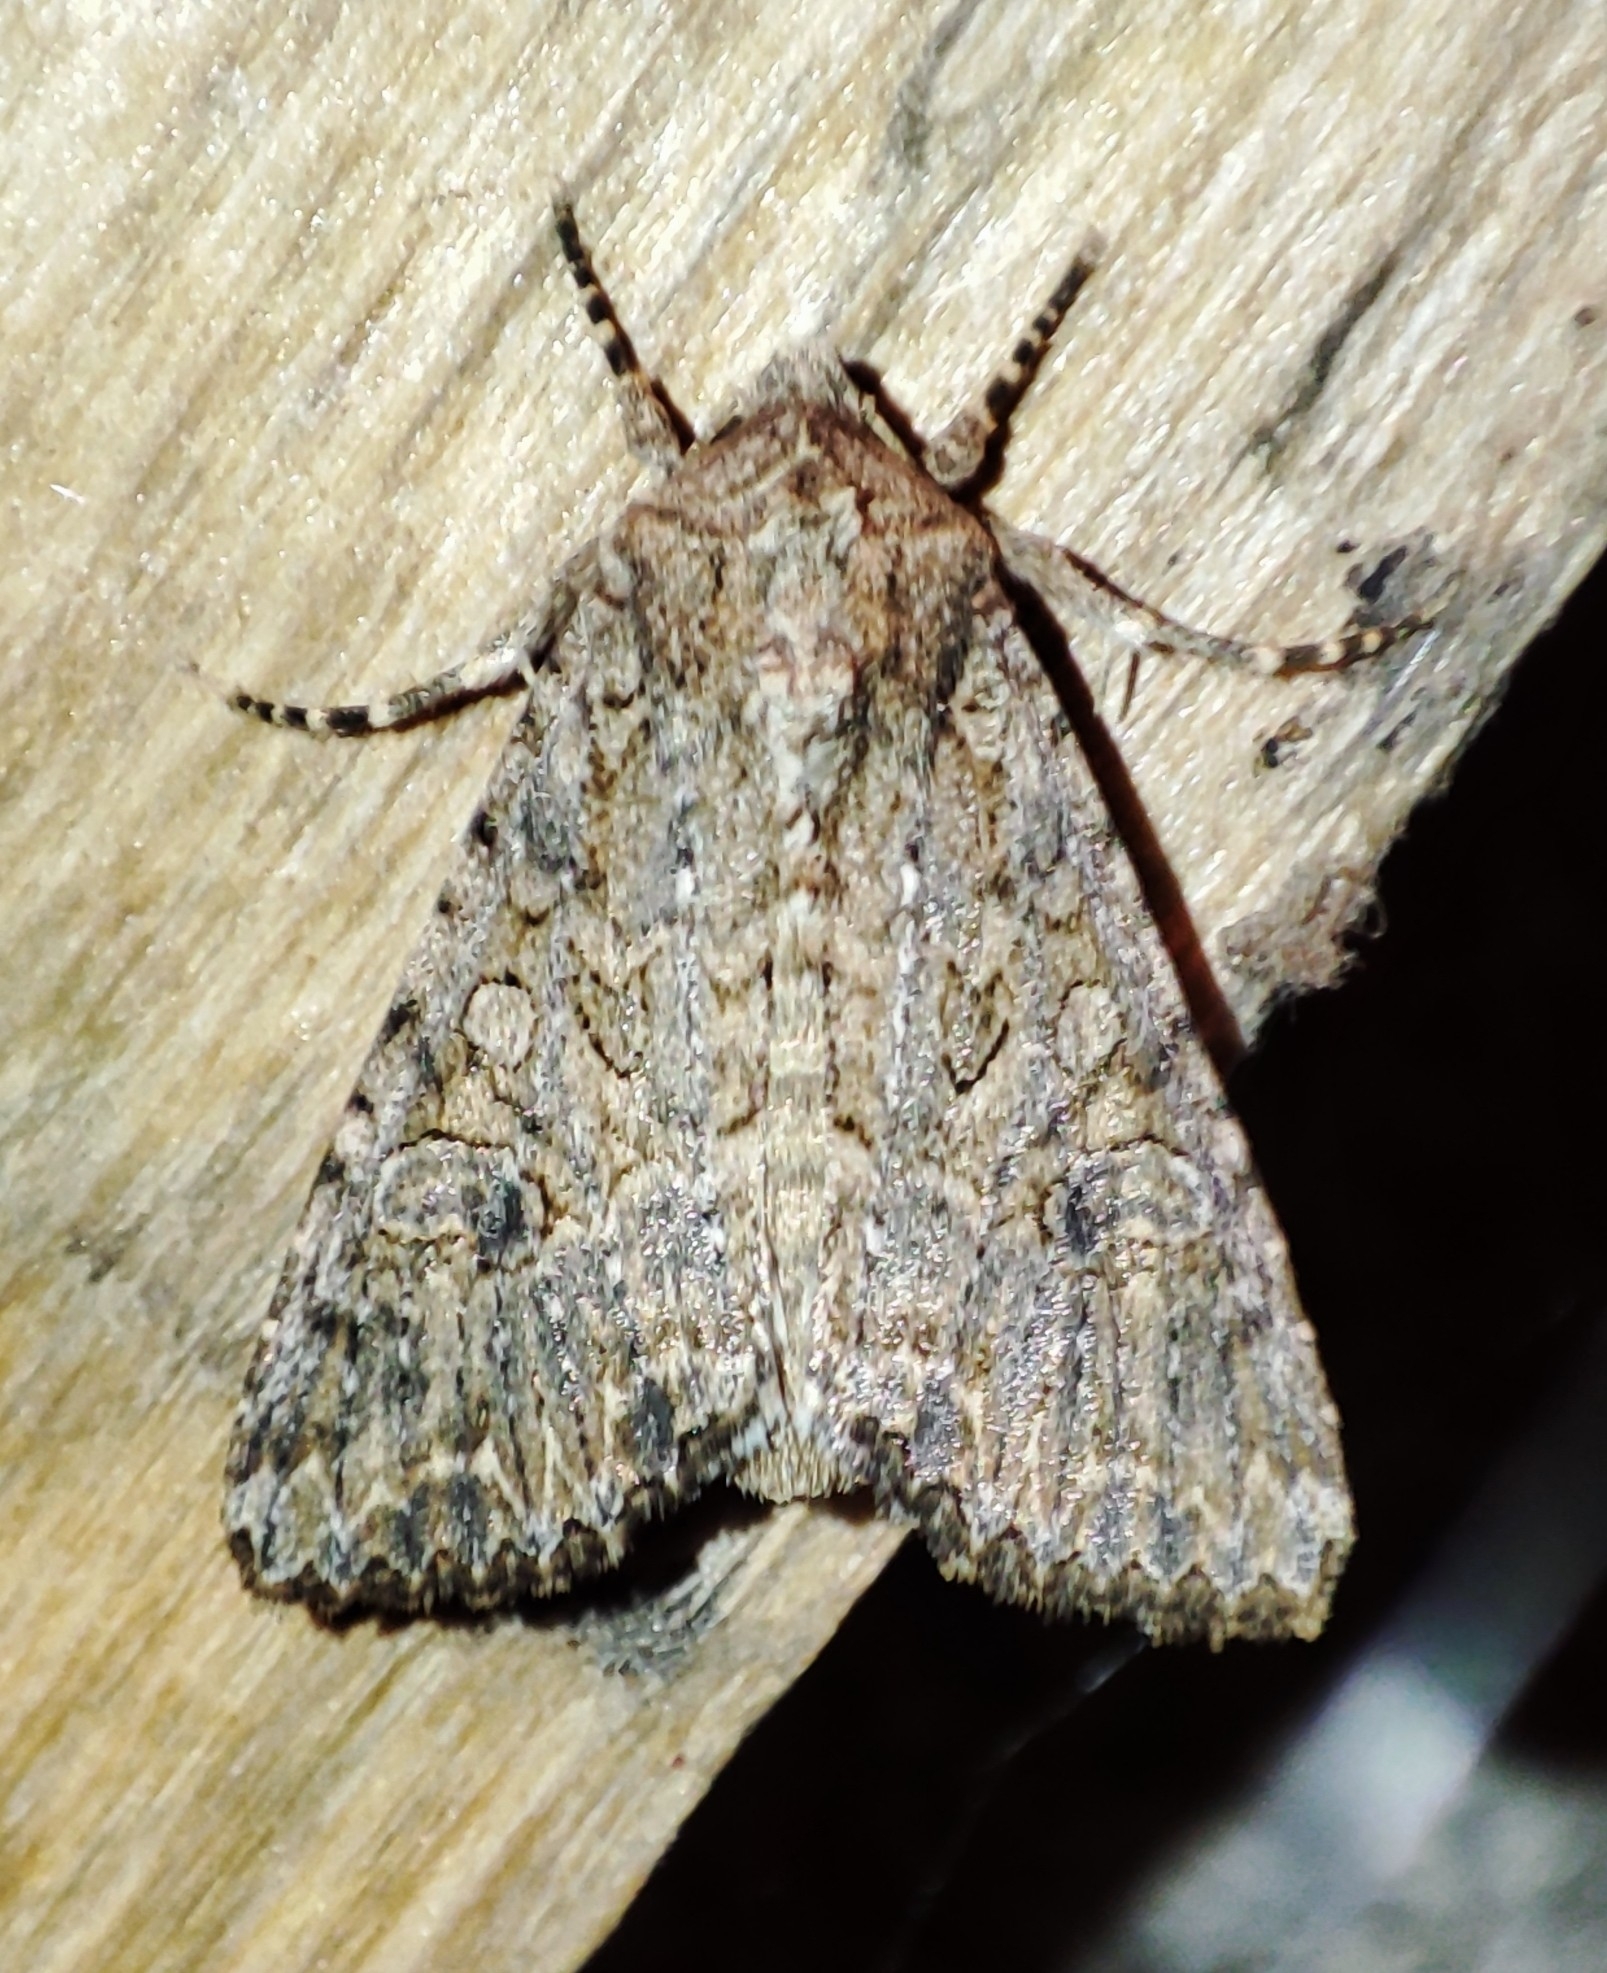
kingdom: Animalia
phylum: Arthropoda
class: Insecta
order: Lepidoptera
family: Noctuidae
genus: Anarta
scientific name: Anarta trifolii
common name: Clover cutworm moth
